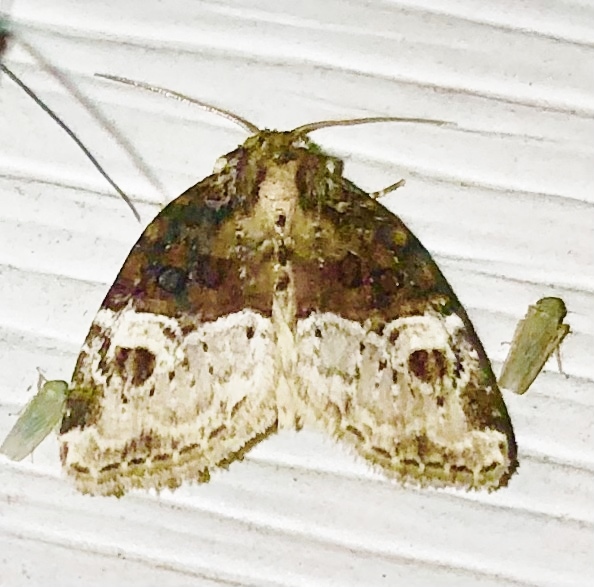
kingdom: Animalia
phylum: Arthropoda
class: Insecta
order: Lepidoptera
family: Noctuidae
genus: Neoligia
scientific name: Neoligia crytora
